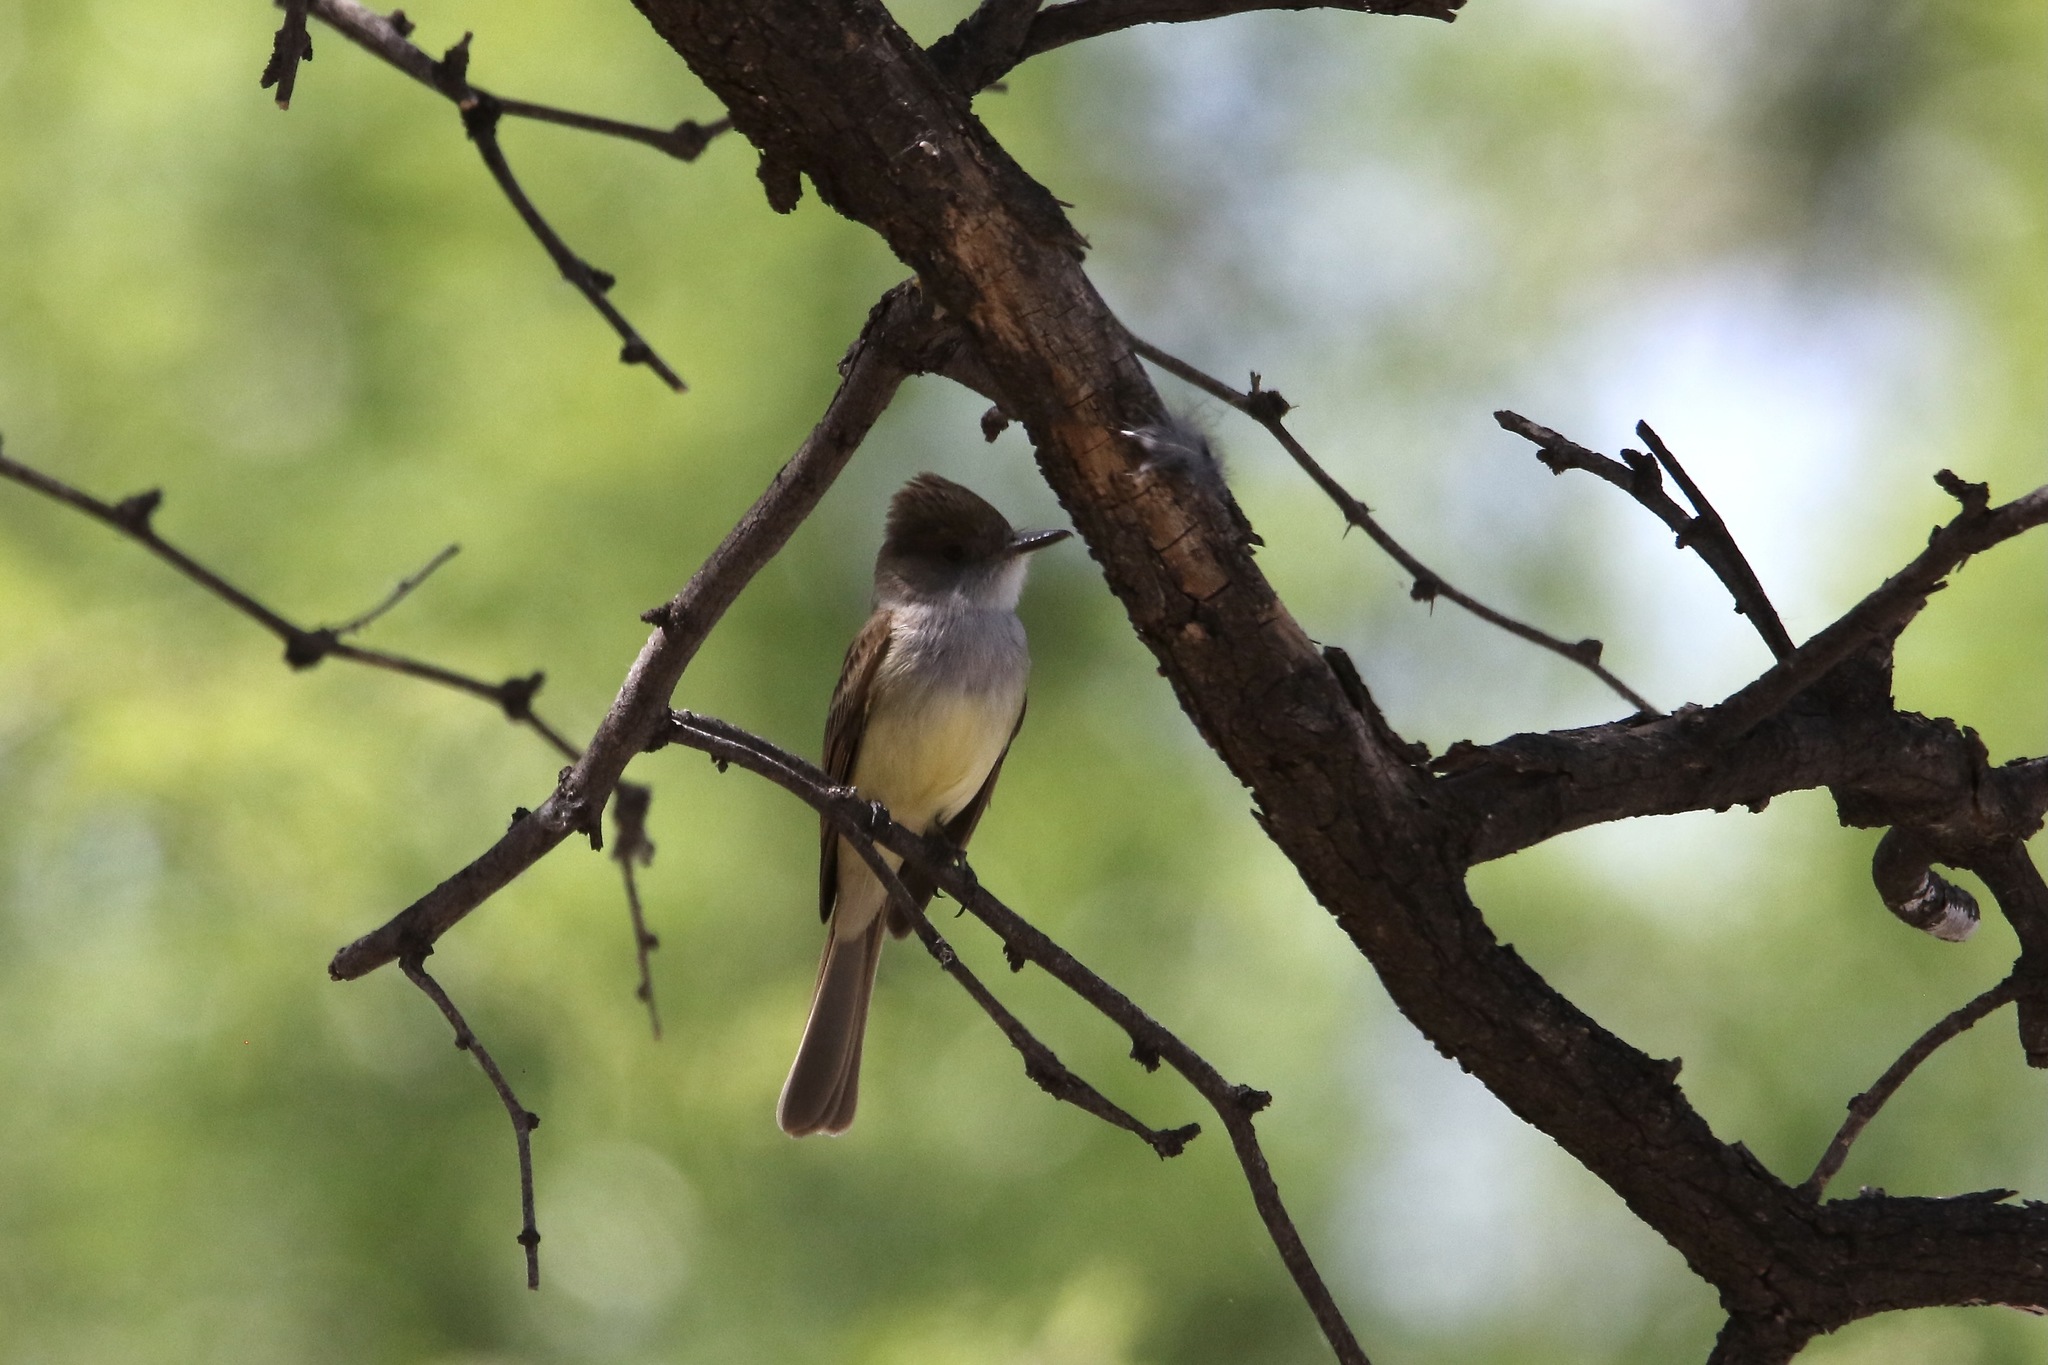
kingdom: Animalia
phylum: Chordata
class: Aves
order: Passeriformes
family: Tyrannidae
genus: Myiarchus
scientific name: Myiarchus tuberculifer
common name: Dusky-capped flycatcher
